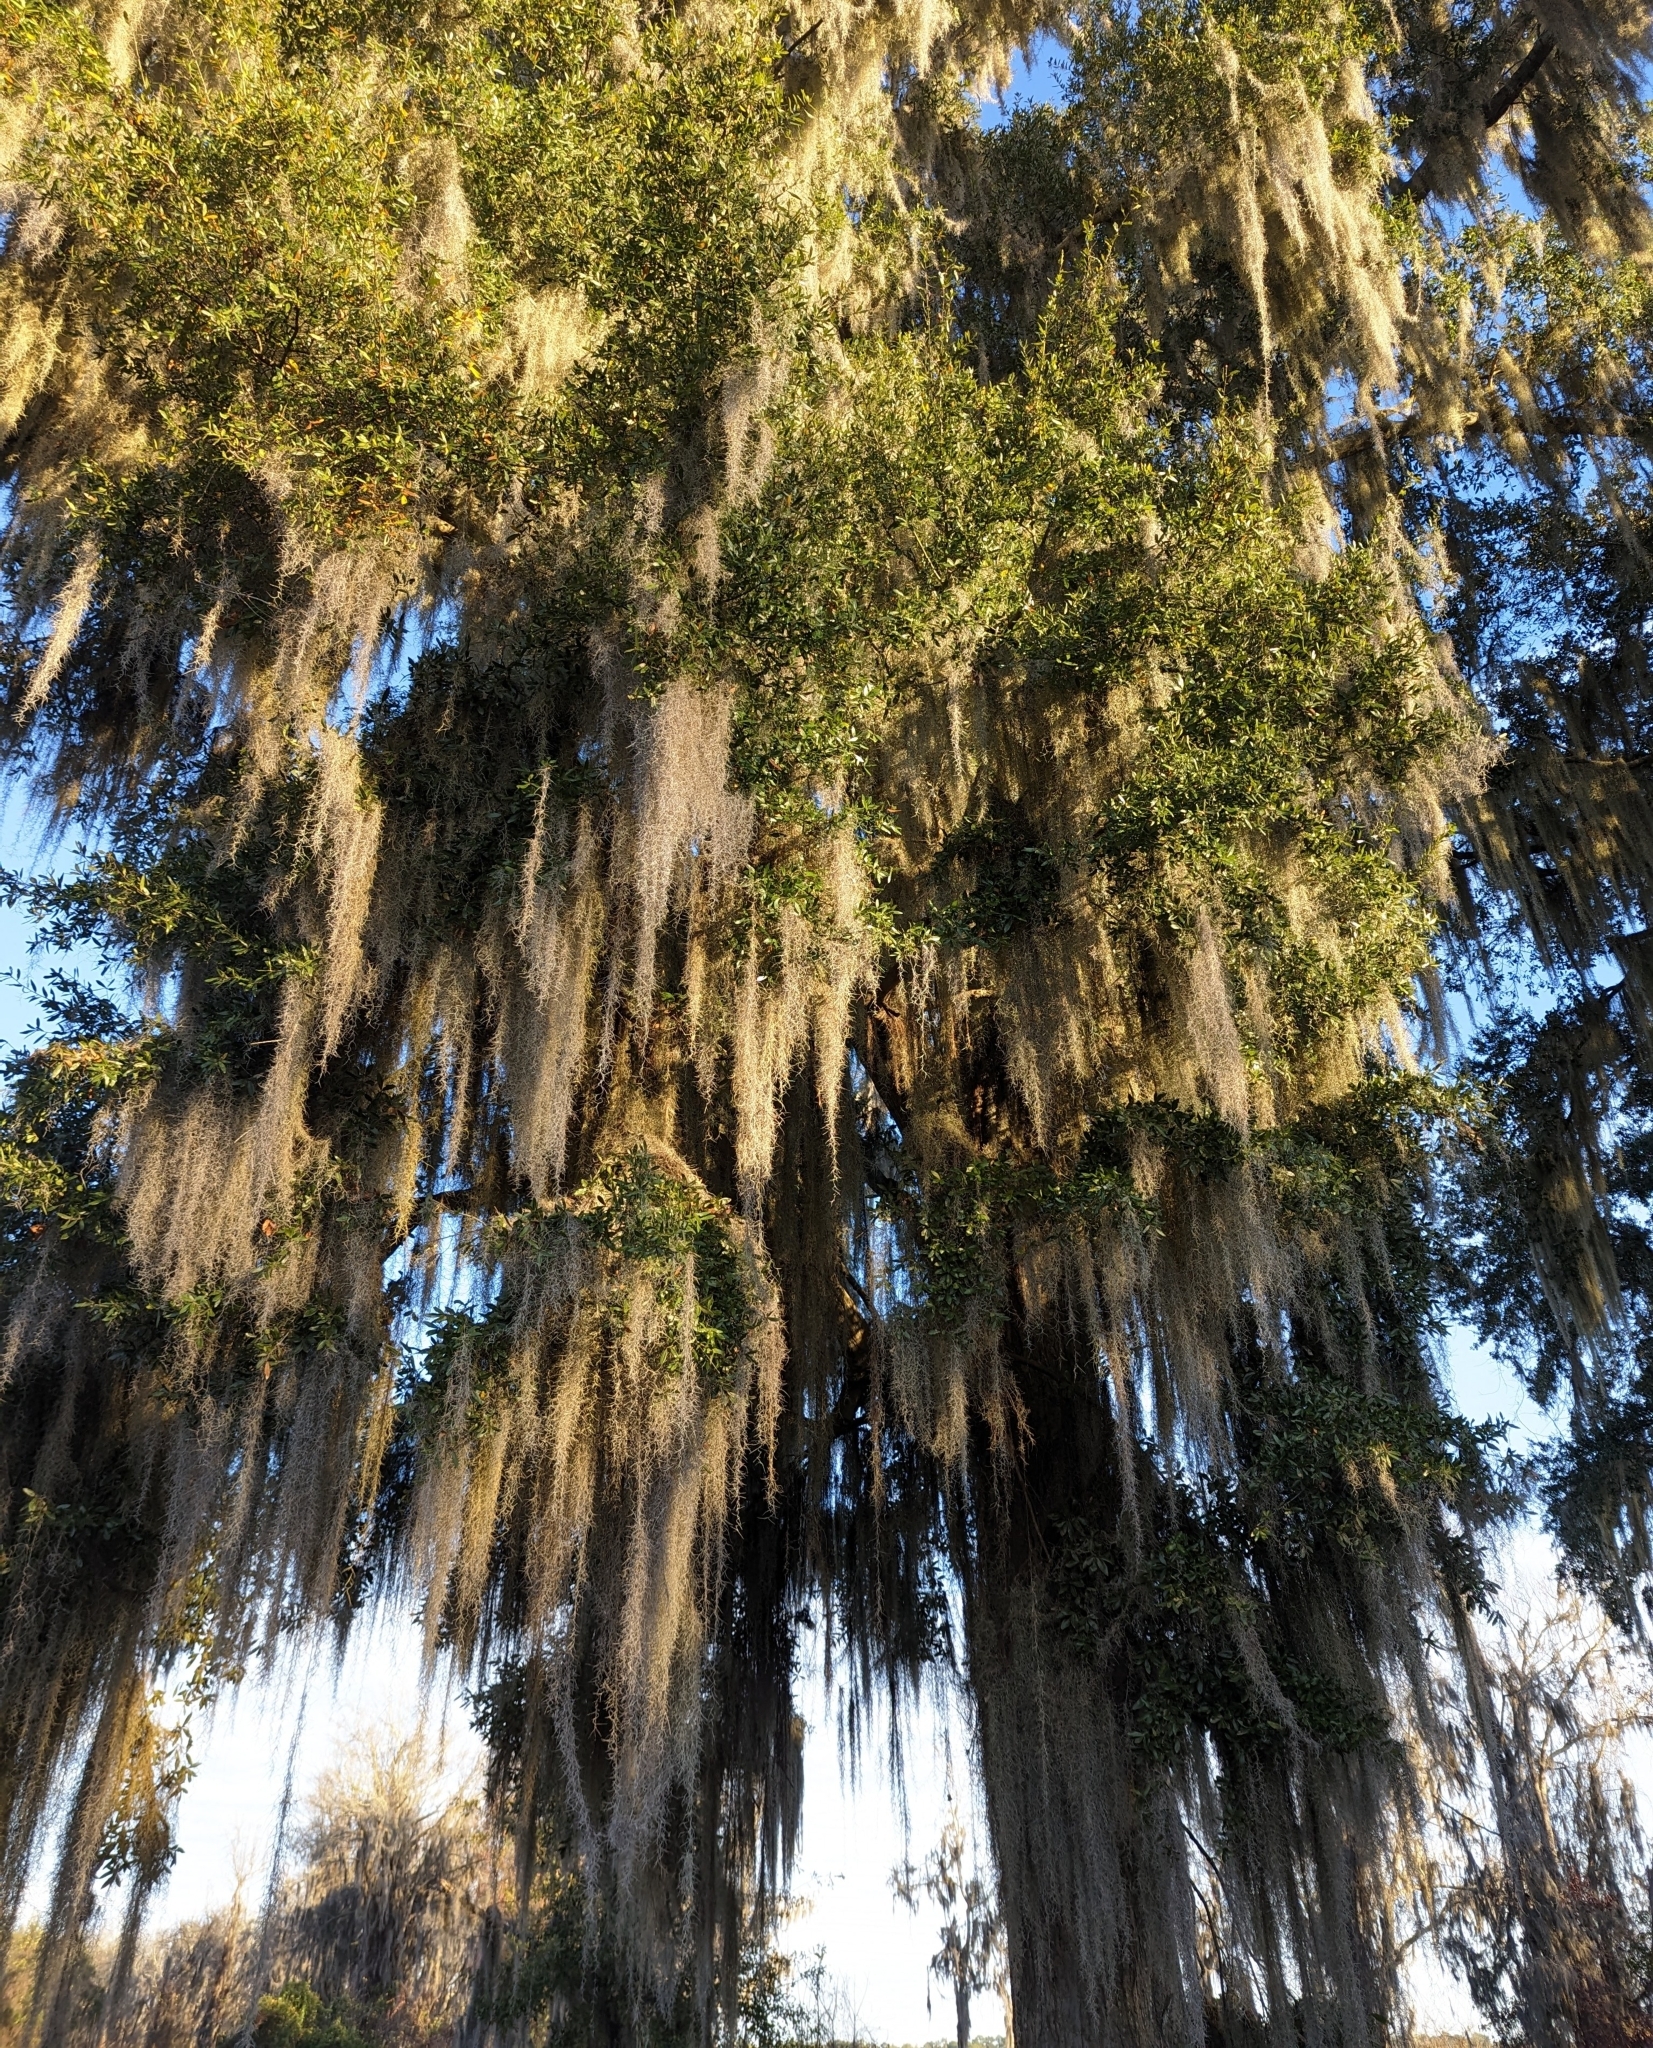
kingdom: Plantae
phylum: Tracheophyta
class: Liliopsida
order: Poales
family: Bromeliaceae
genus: Tillandsia
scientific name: Tillandsia usneoides
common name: Spanish moss
